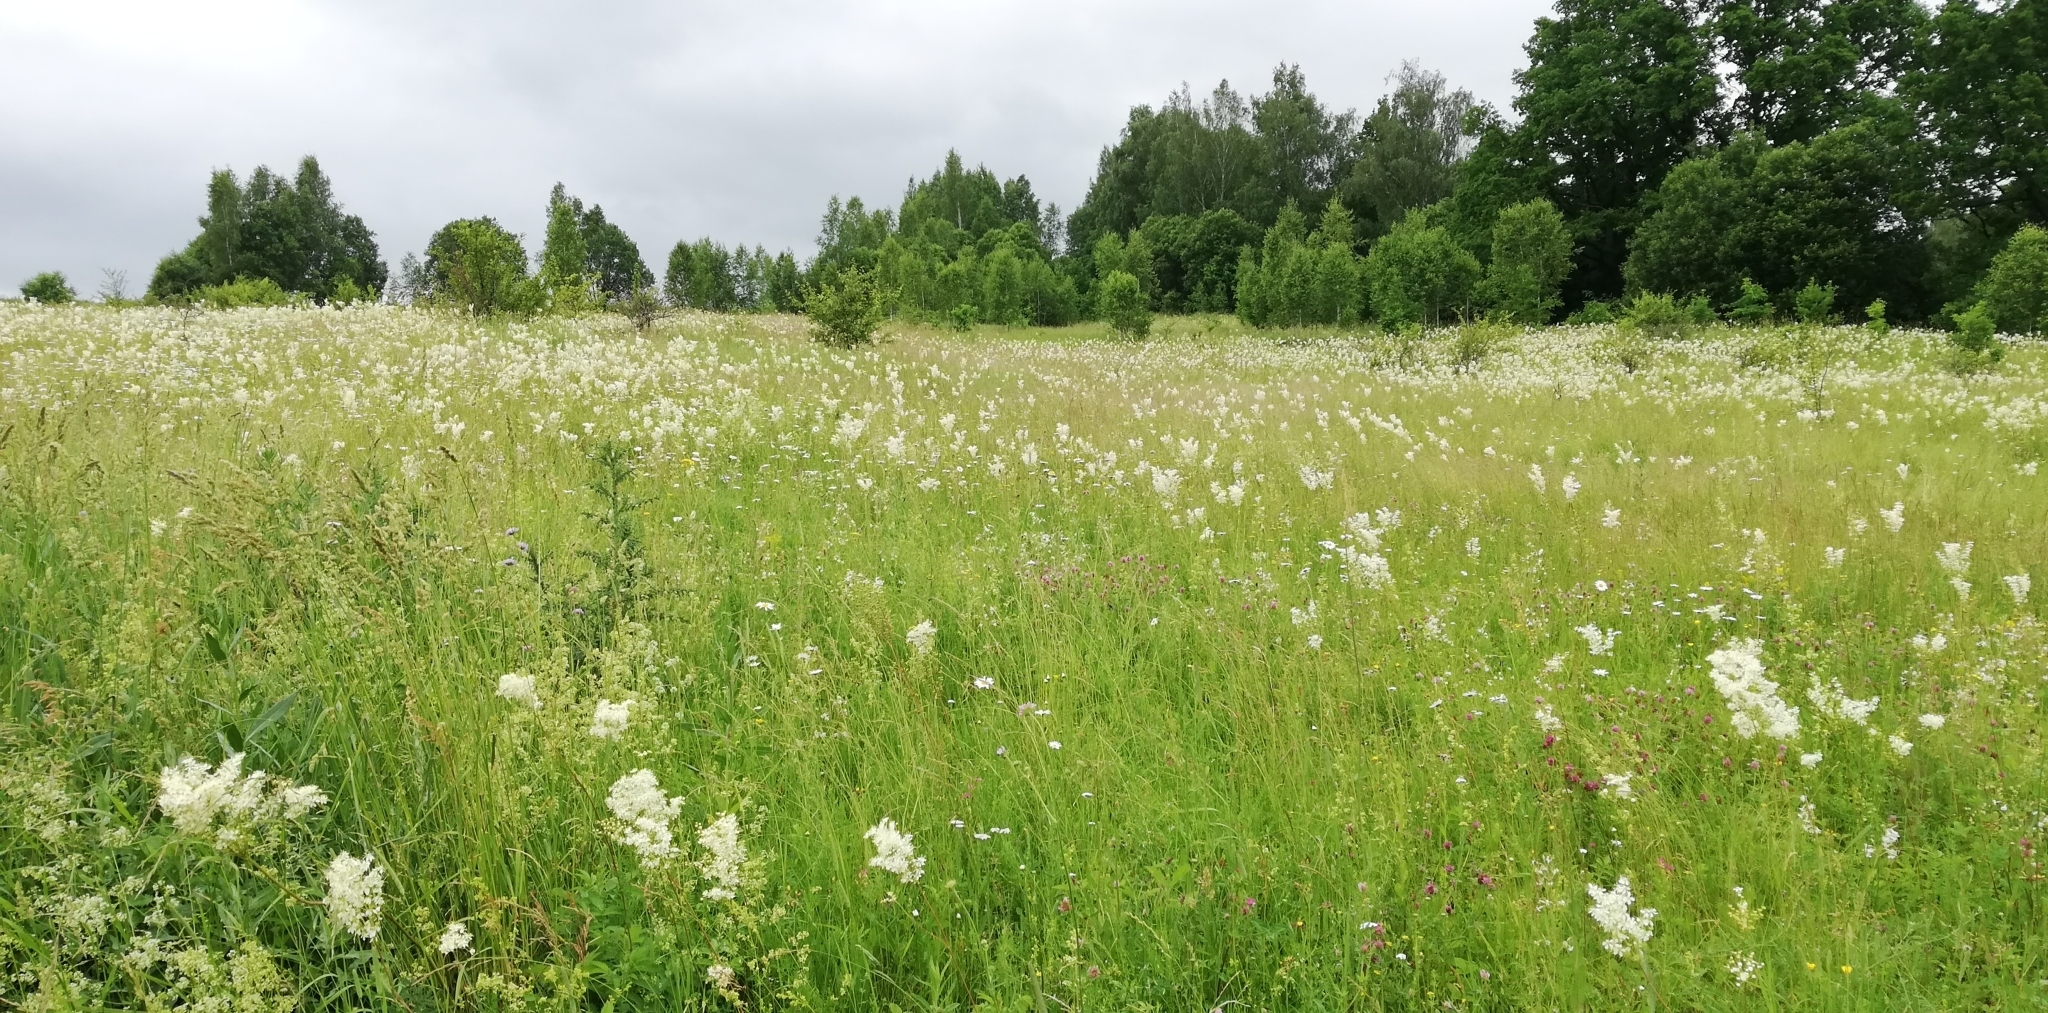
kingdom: Plantae
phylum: Tracheophyta
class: Magnoliopsida
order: Rosales
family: Rosaceae
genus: Filipendula
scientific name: Filipendula vulgaris
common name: Dropwort
